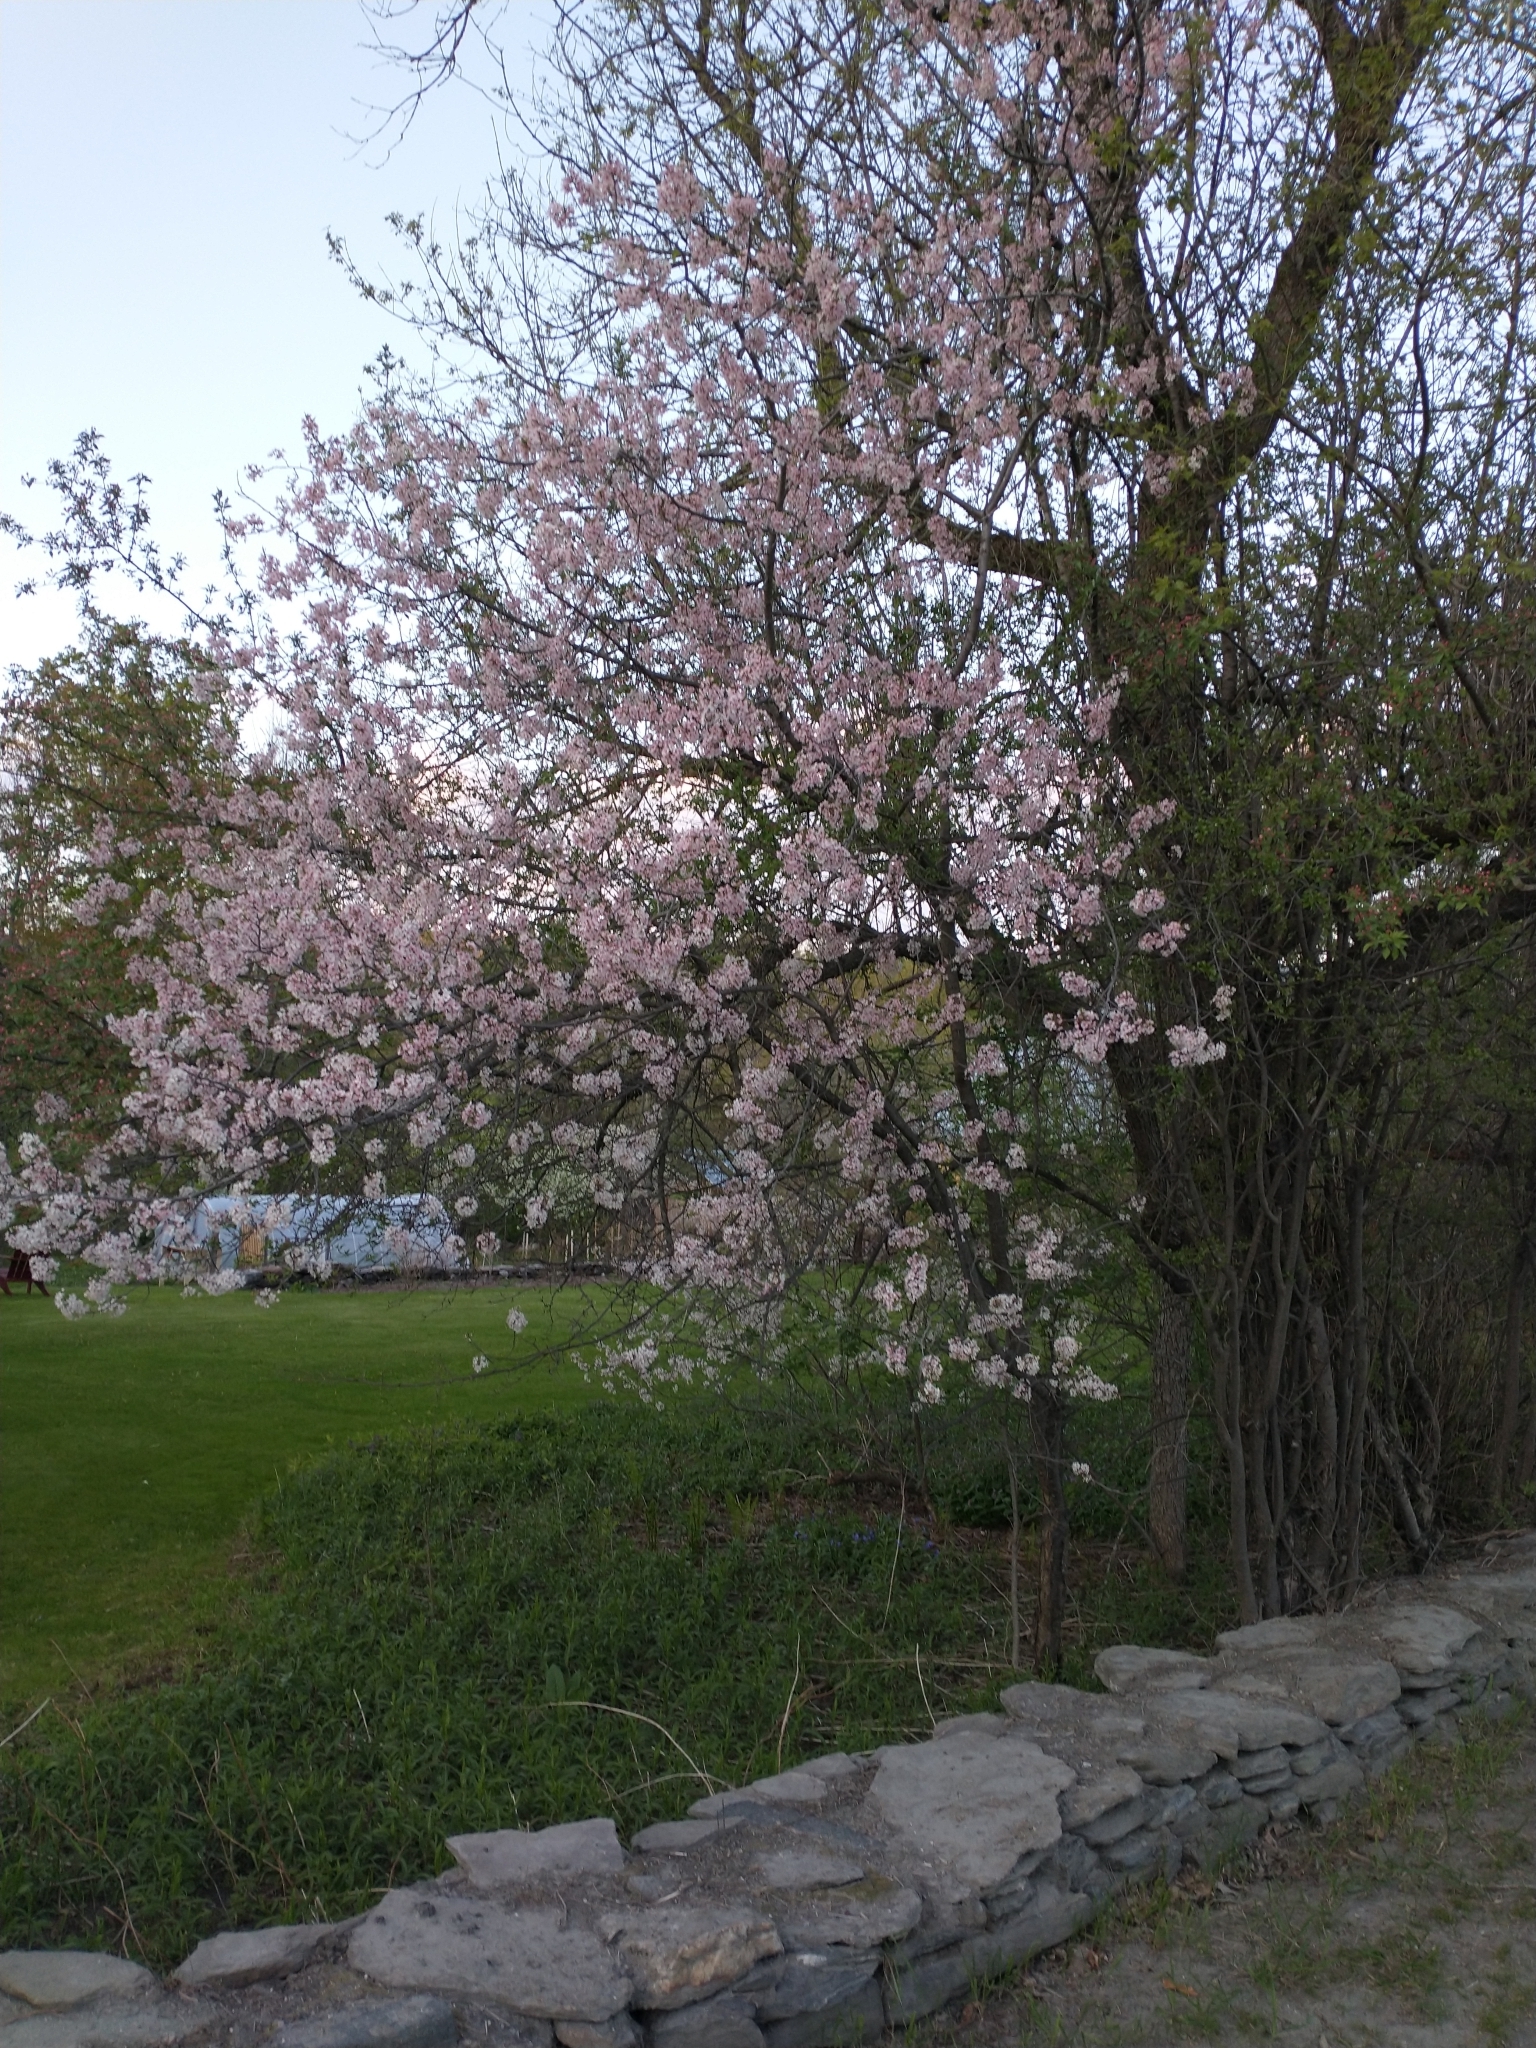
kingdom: Plantae
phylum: Tracheophyta
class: Magnoliopsida
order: Rosales
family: Rosaceae
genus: Prunus
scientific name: Prunus nigra
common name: Black plum
